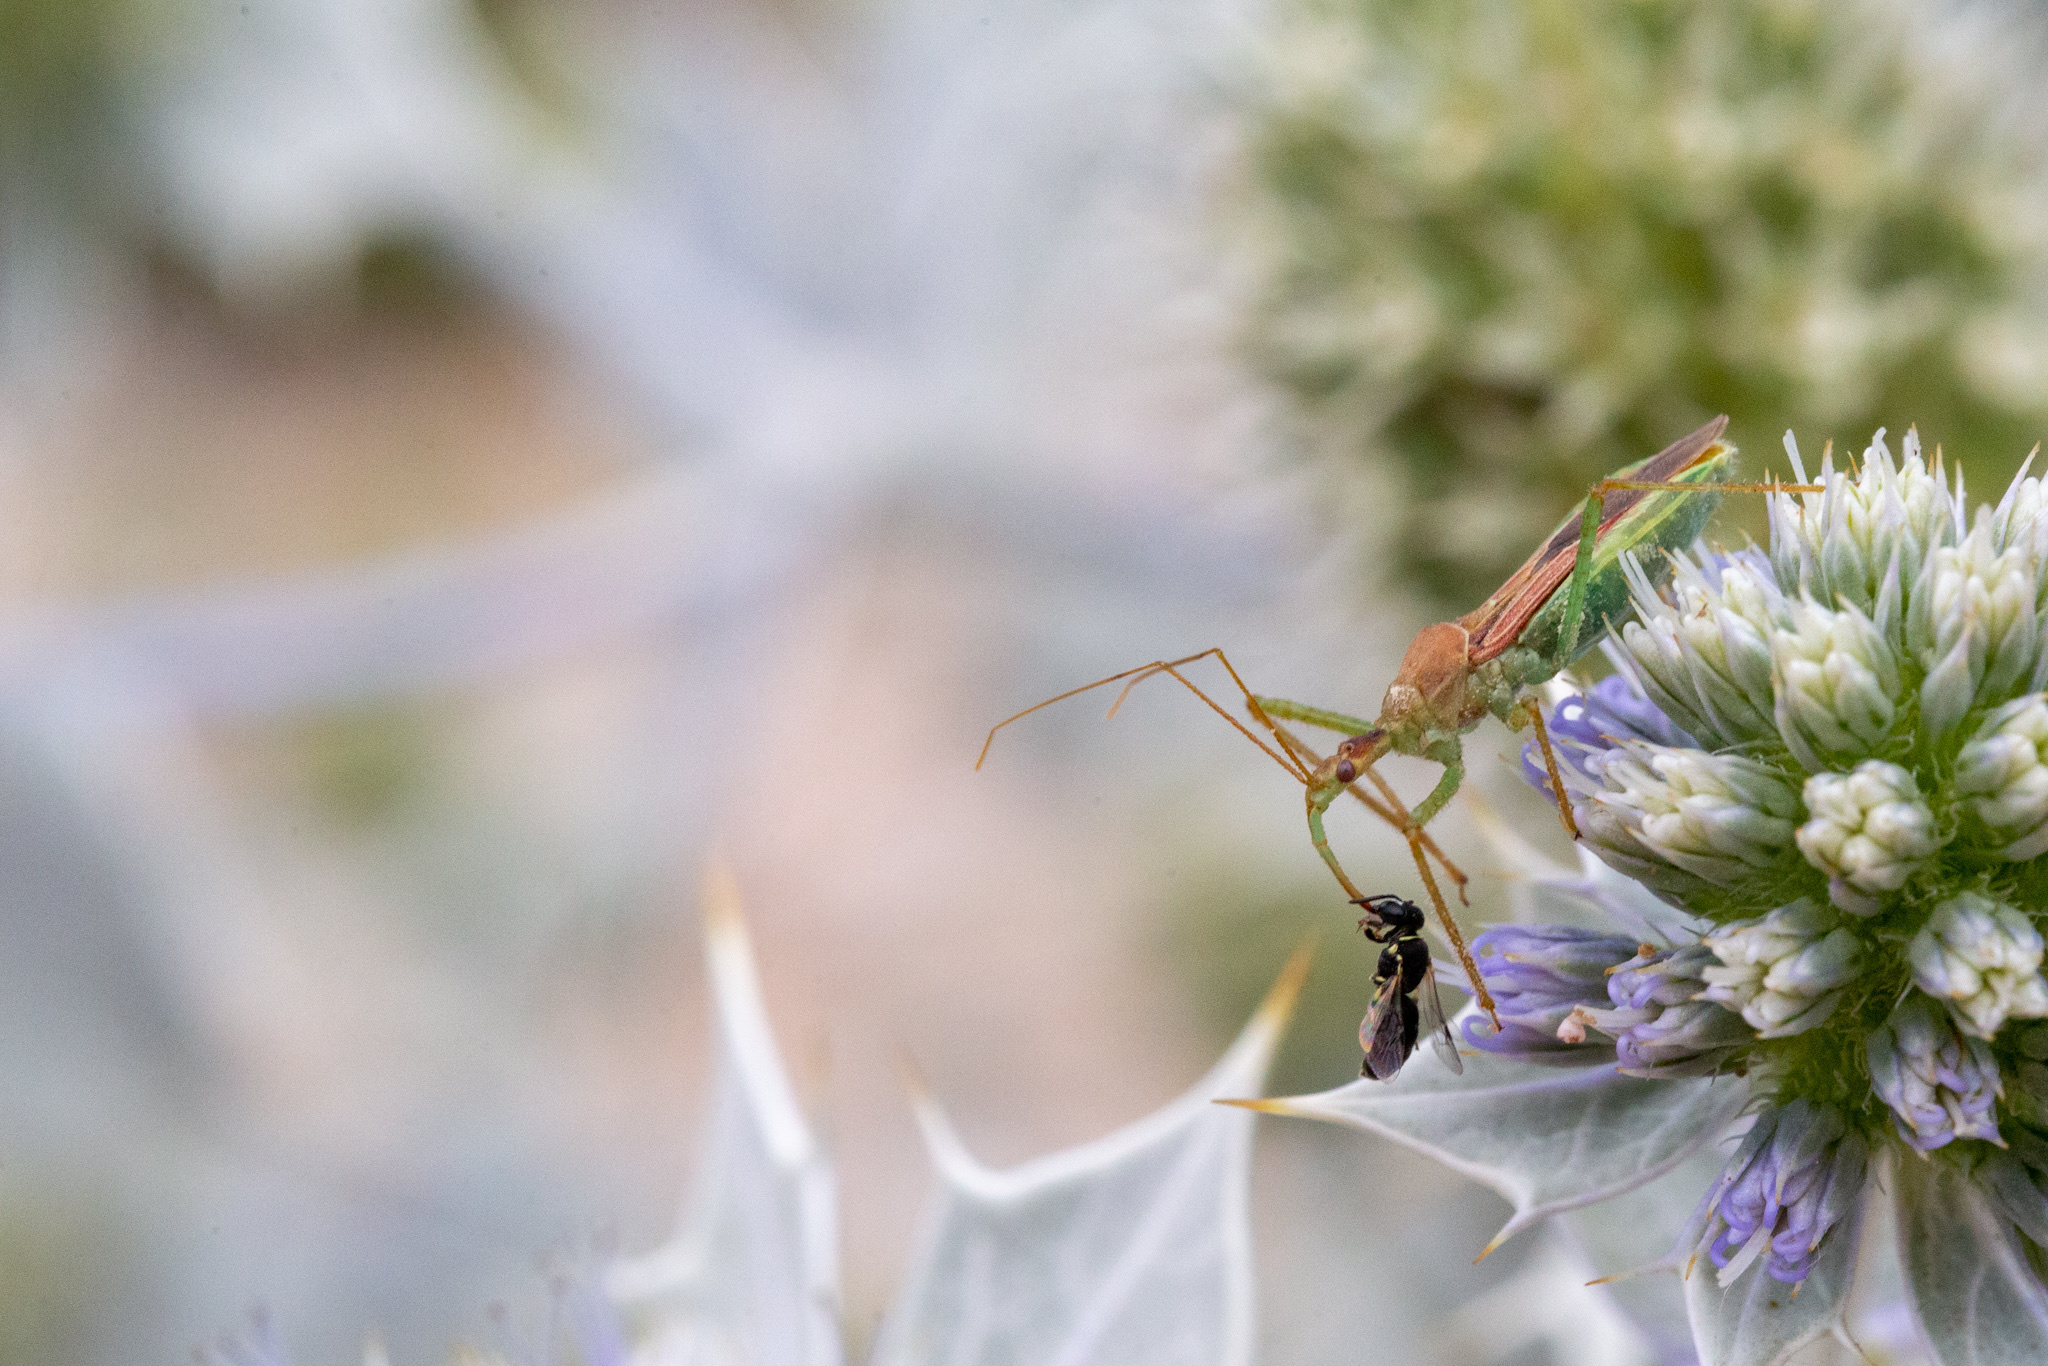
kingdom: Animalia
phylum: Arthropoda
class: Insecta
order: Hemiptera
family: Reduviidae
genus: Zelus
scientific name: Zelus renardii
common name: Assassin bug
